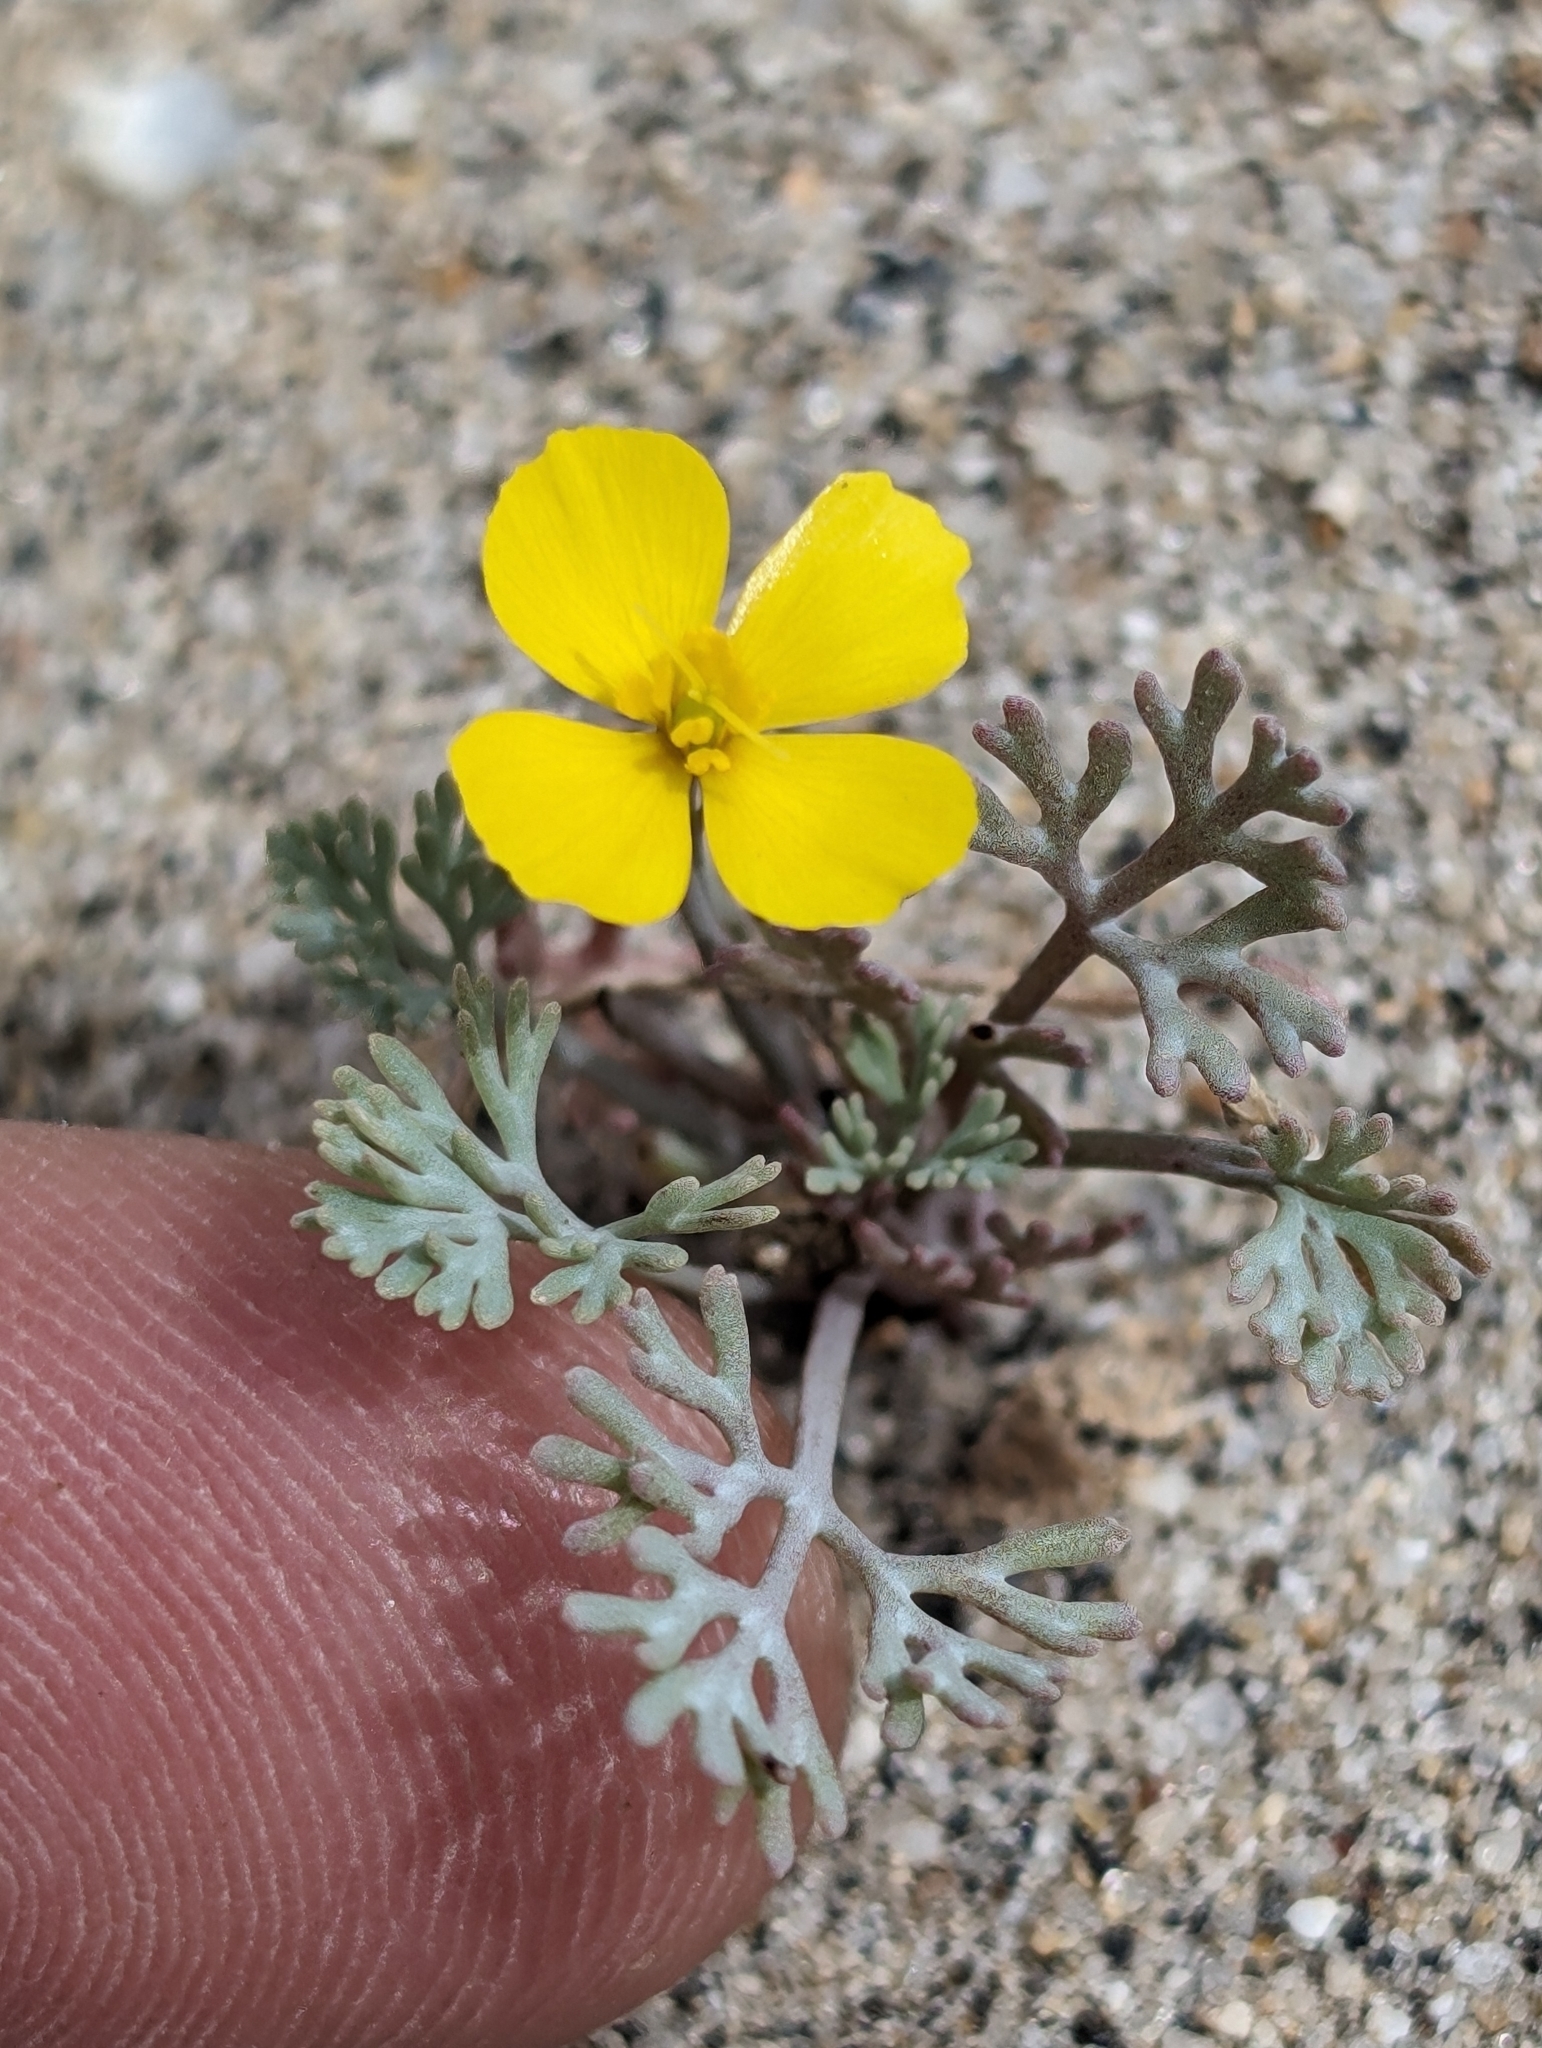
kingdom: Plantae
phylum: Tracheophyta
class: Magnoliopsida
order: Ranunculales
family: Papaveraceae
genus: Eschscholzia
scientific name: Eschscholzia minutiflora
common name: Small-flower california-poppy
